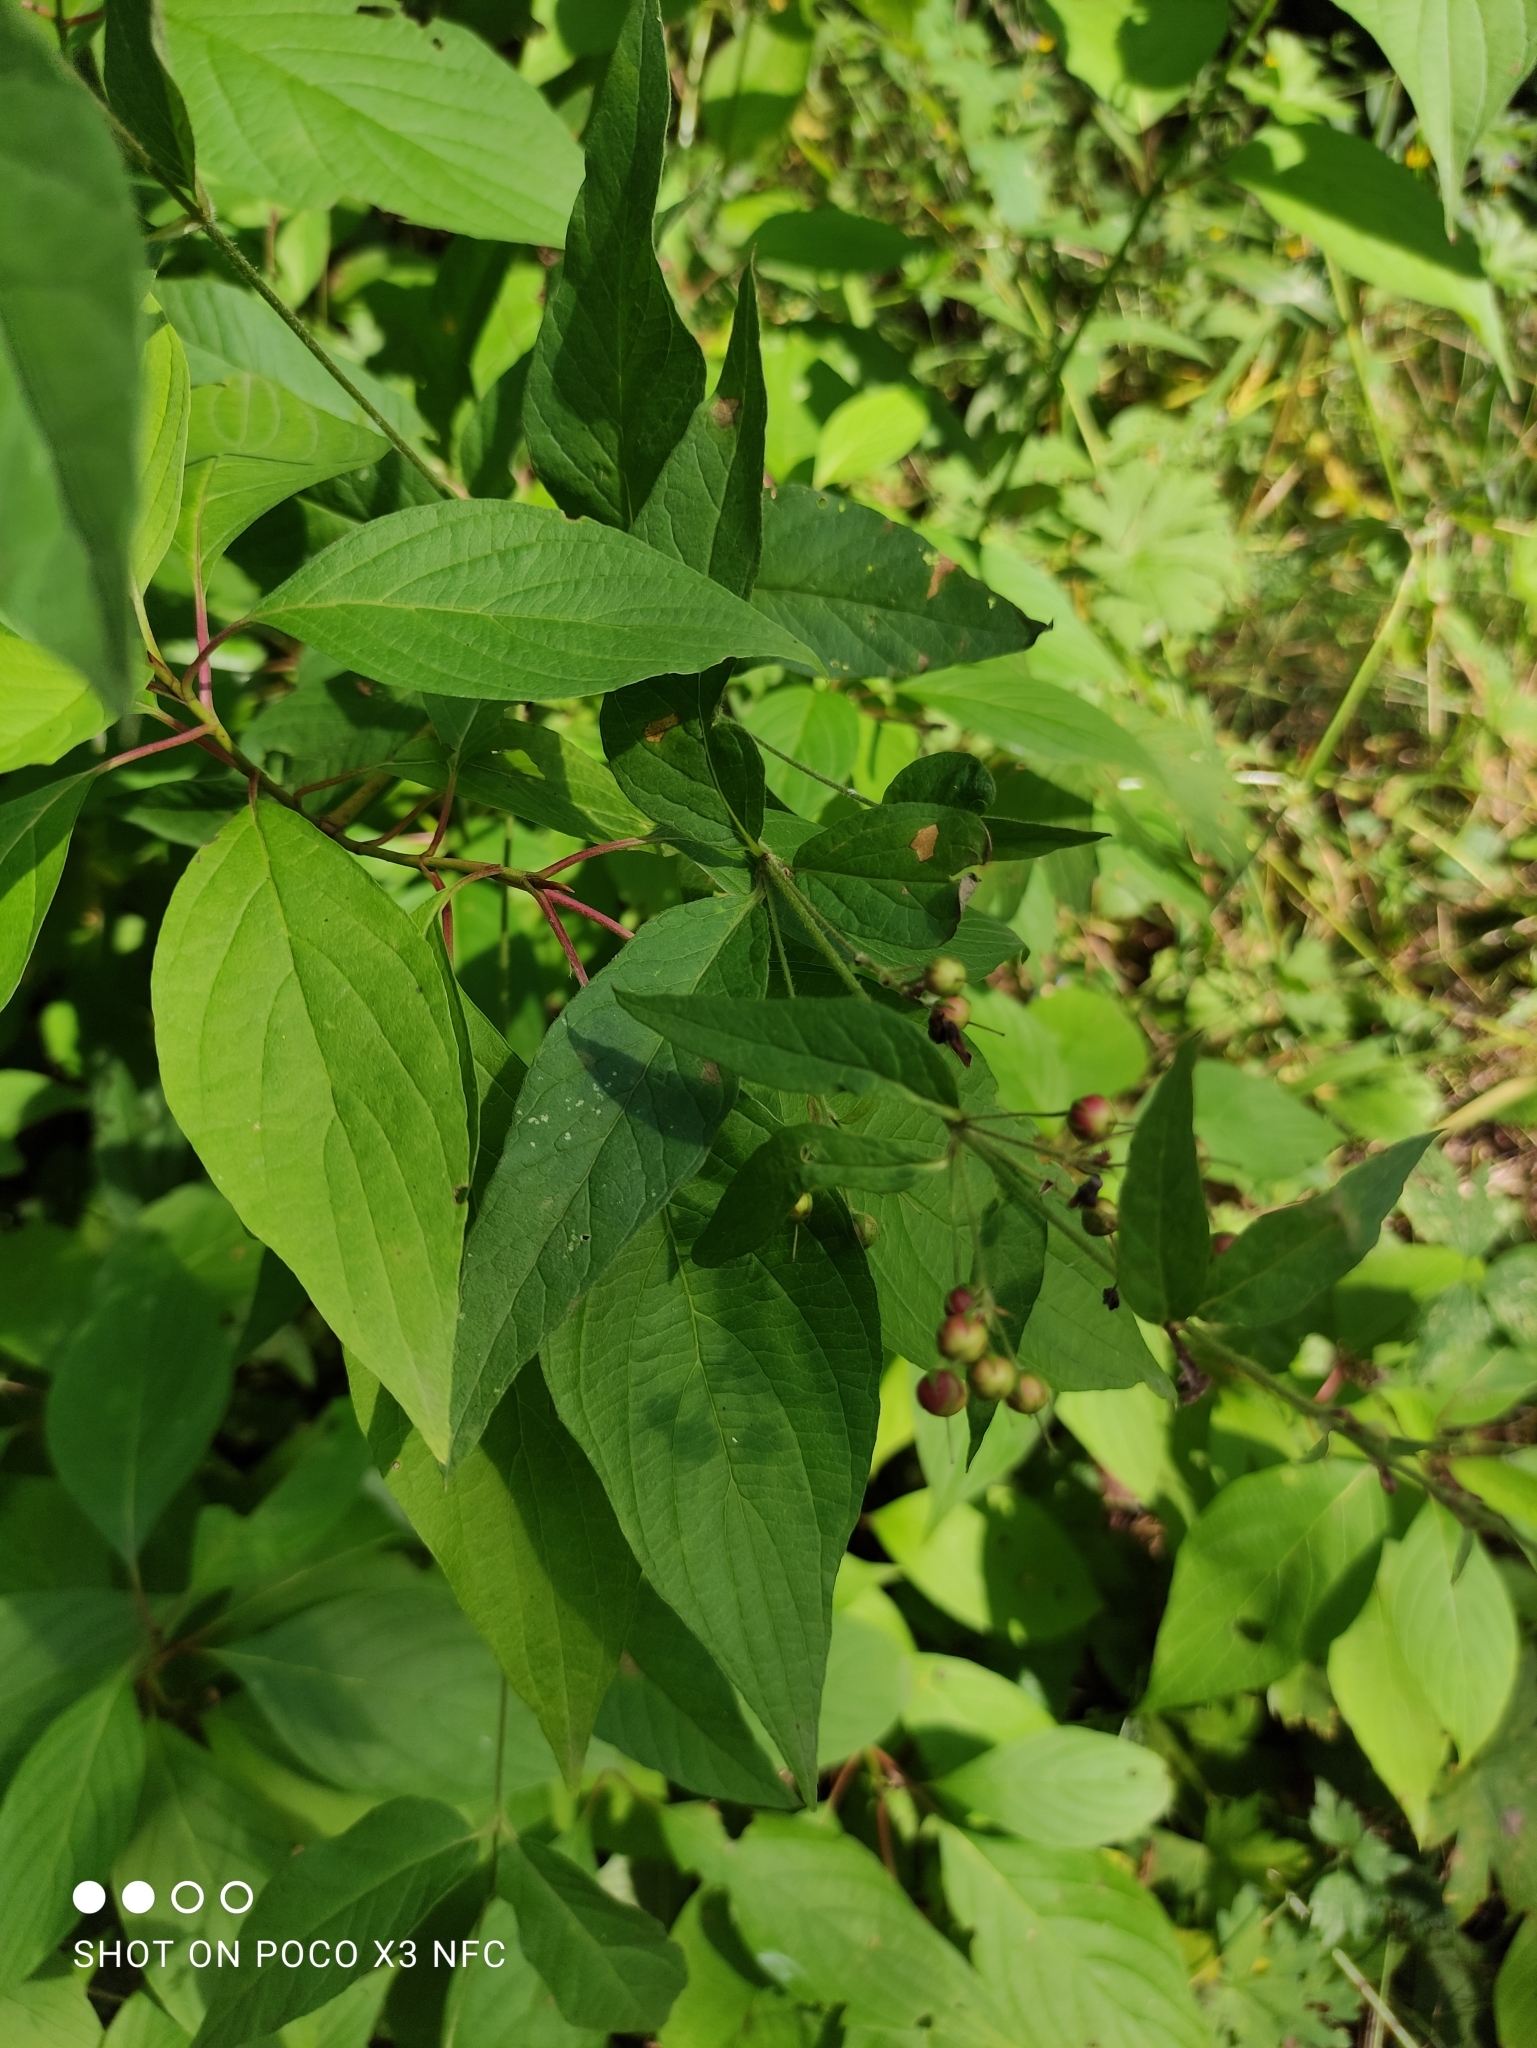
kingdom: Plantae
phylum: Tracheophyta
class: Magnoliopsida
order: Ericales
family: Primulaceae
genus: Lysimachia
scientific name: Lysimachia vulgaris
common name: Yellow loosestrife
